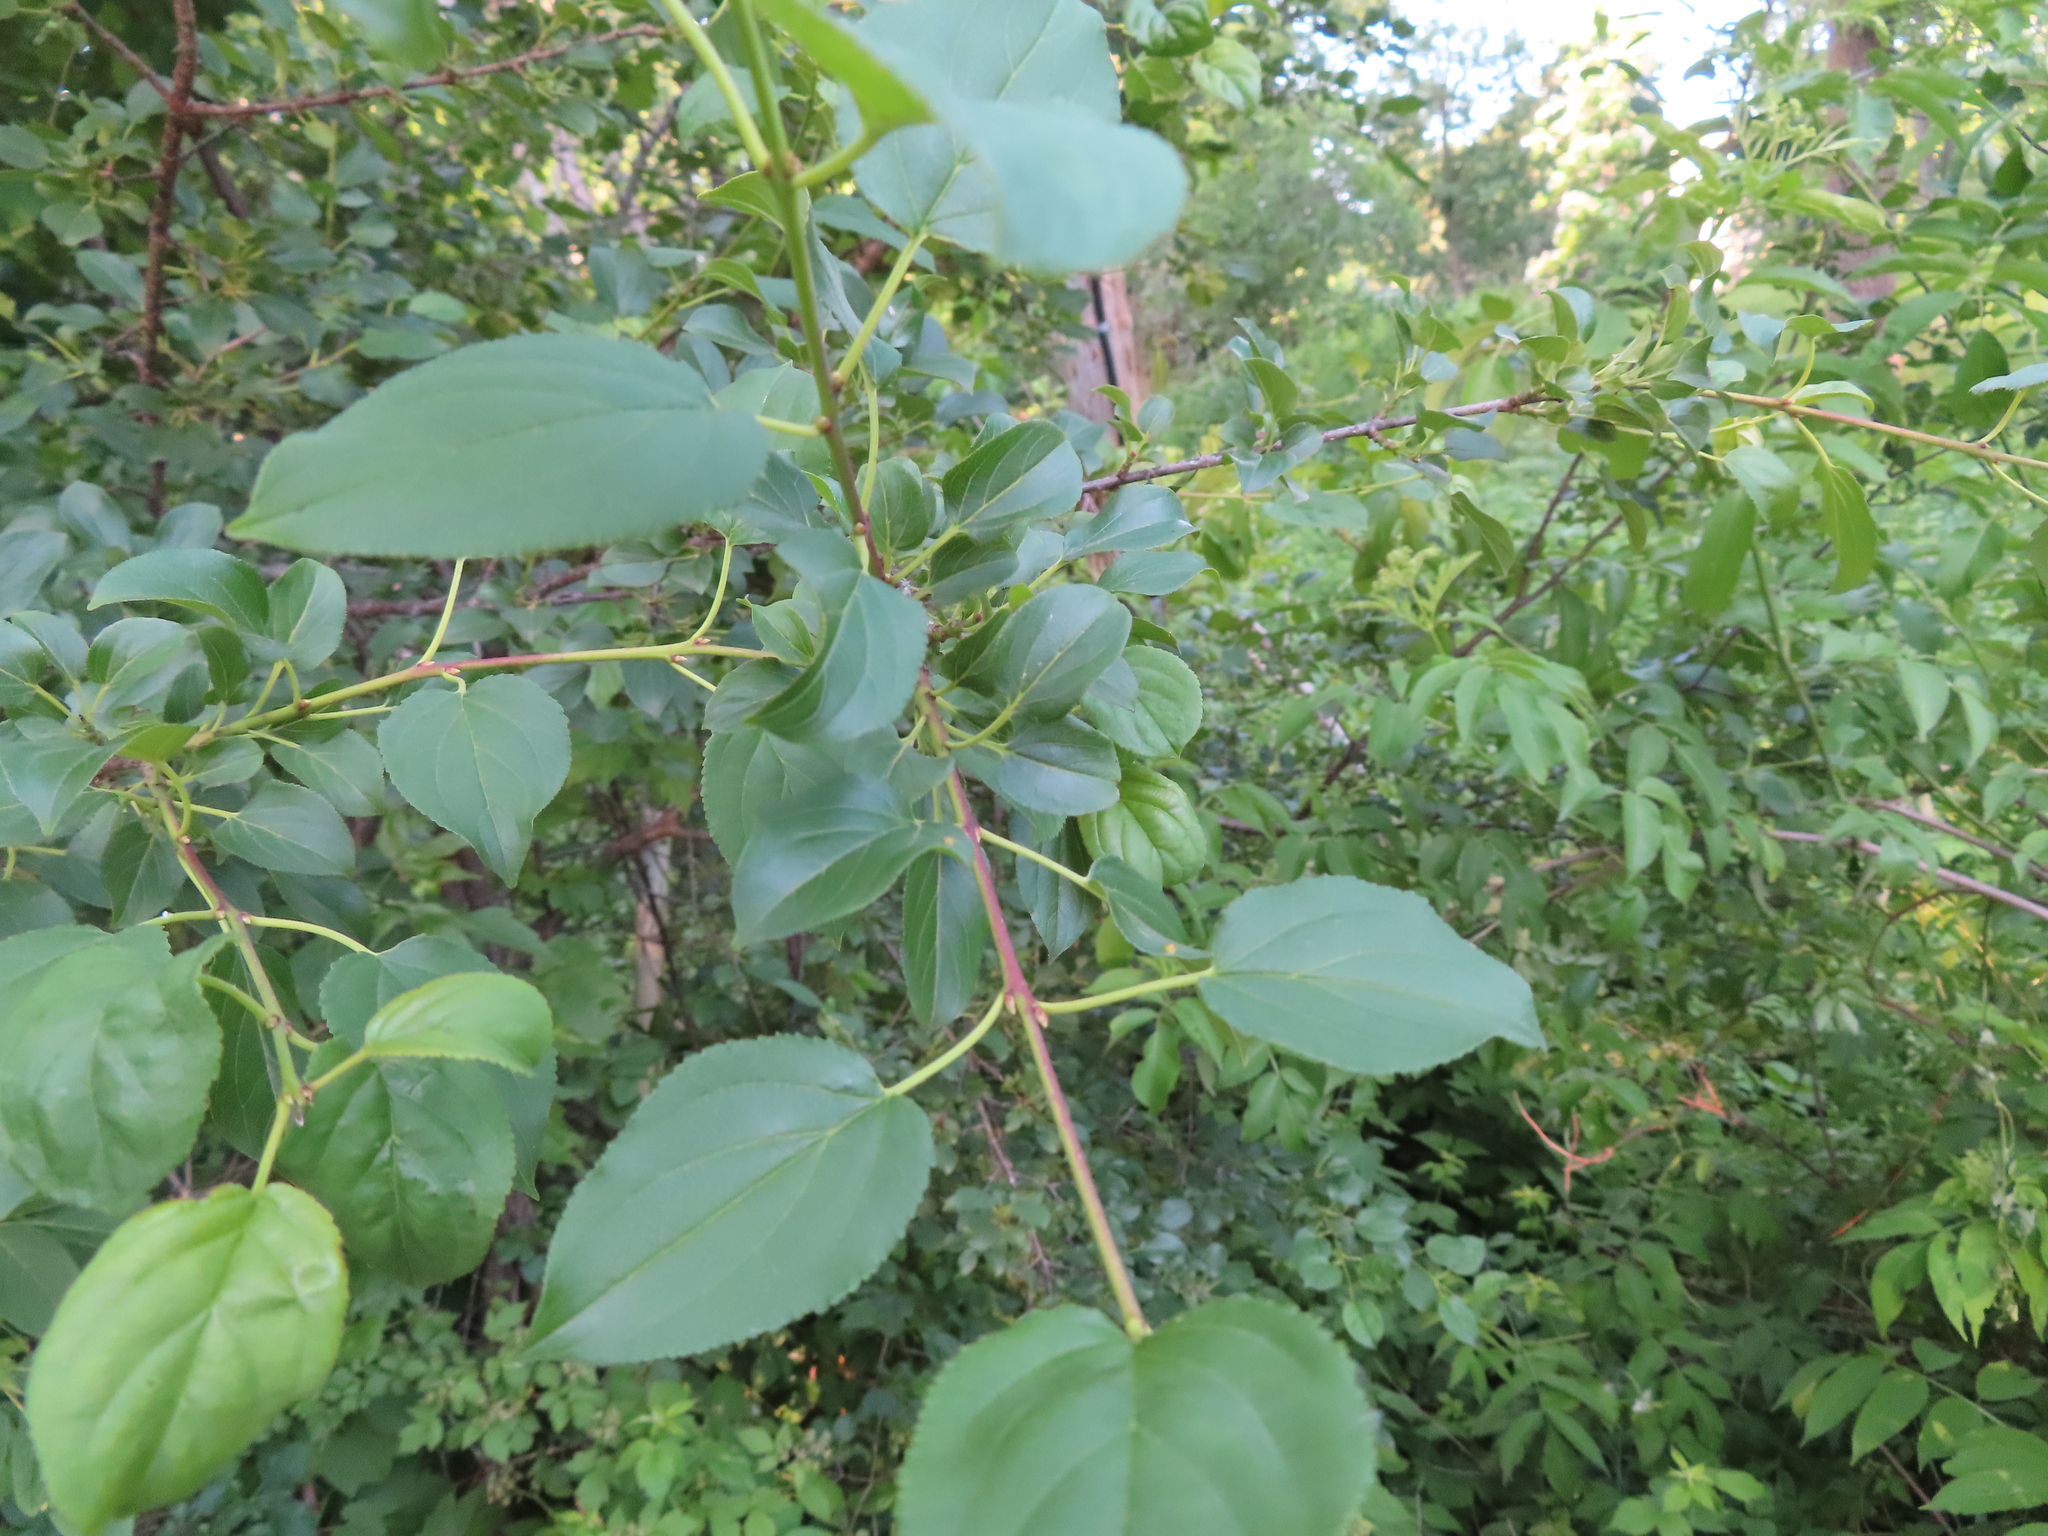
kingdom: Plantae
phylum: Tracheophyta
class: Magnoliopsida
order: Rosales
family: Rhamnaceae
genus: Rhamnus
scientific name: Rhamnus cathartica
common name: Common buckthorn
